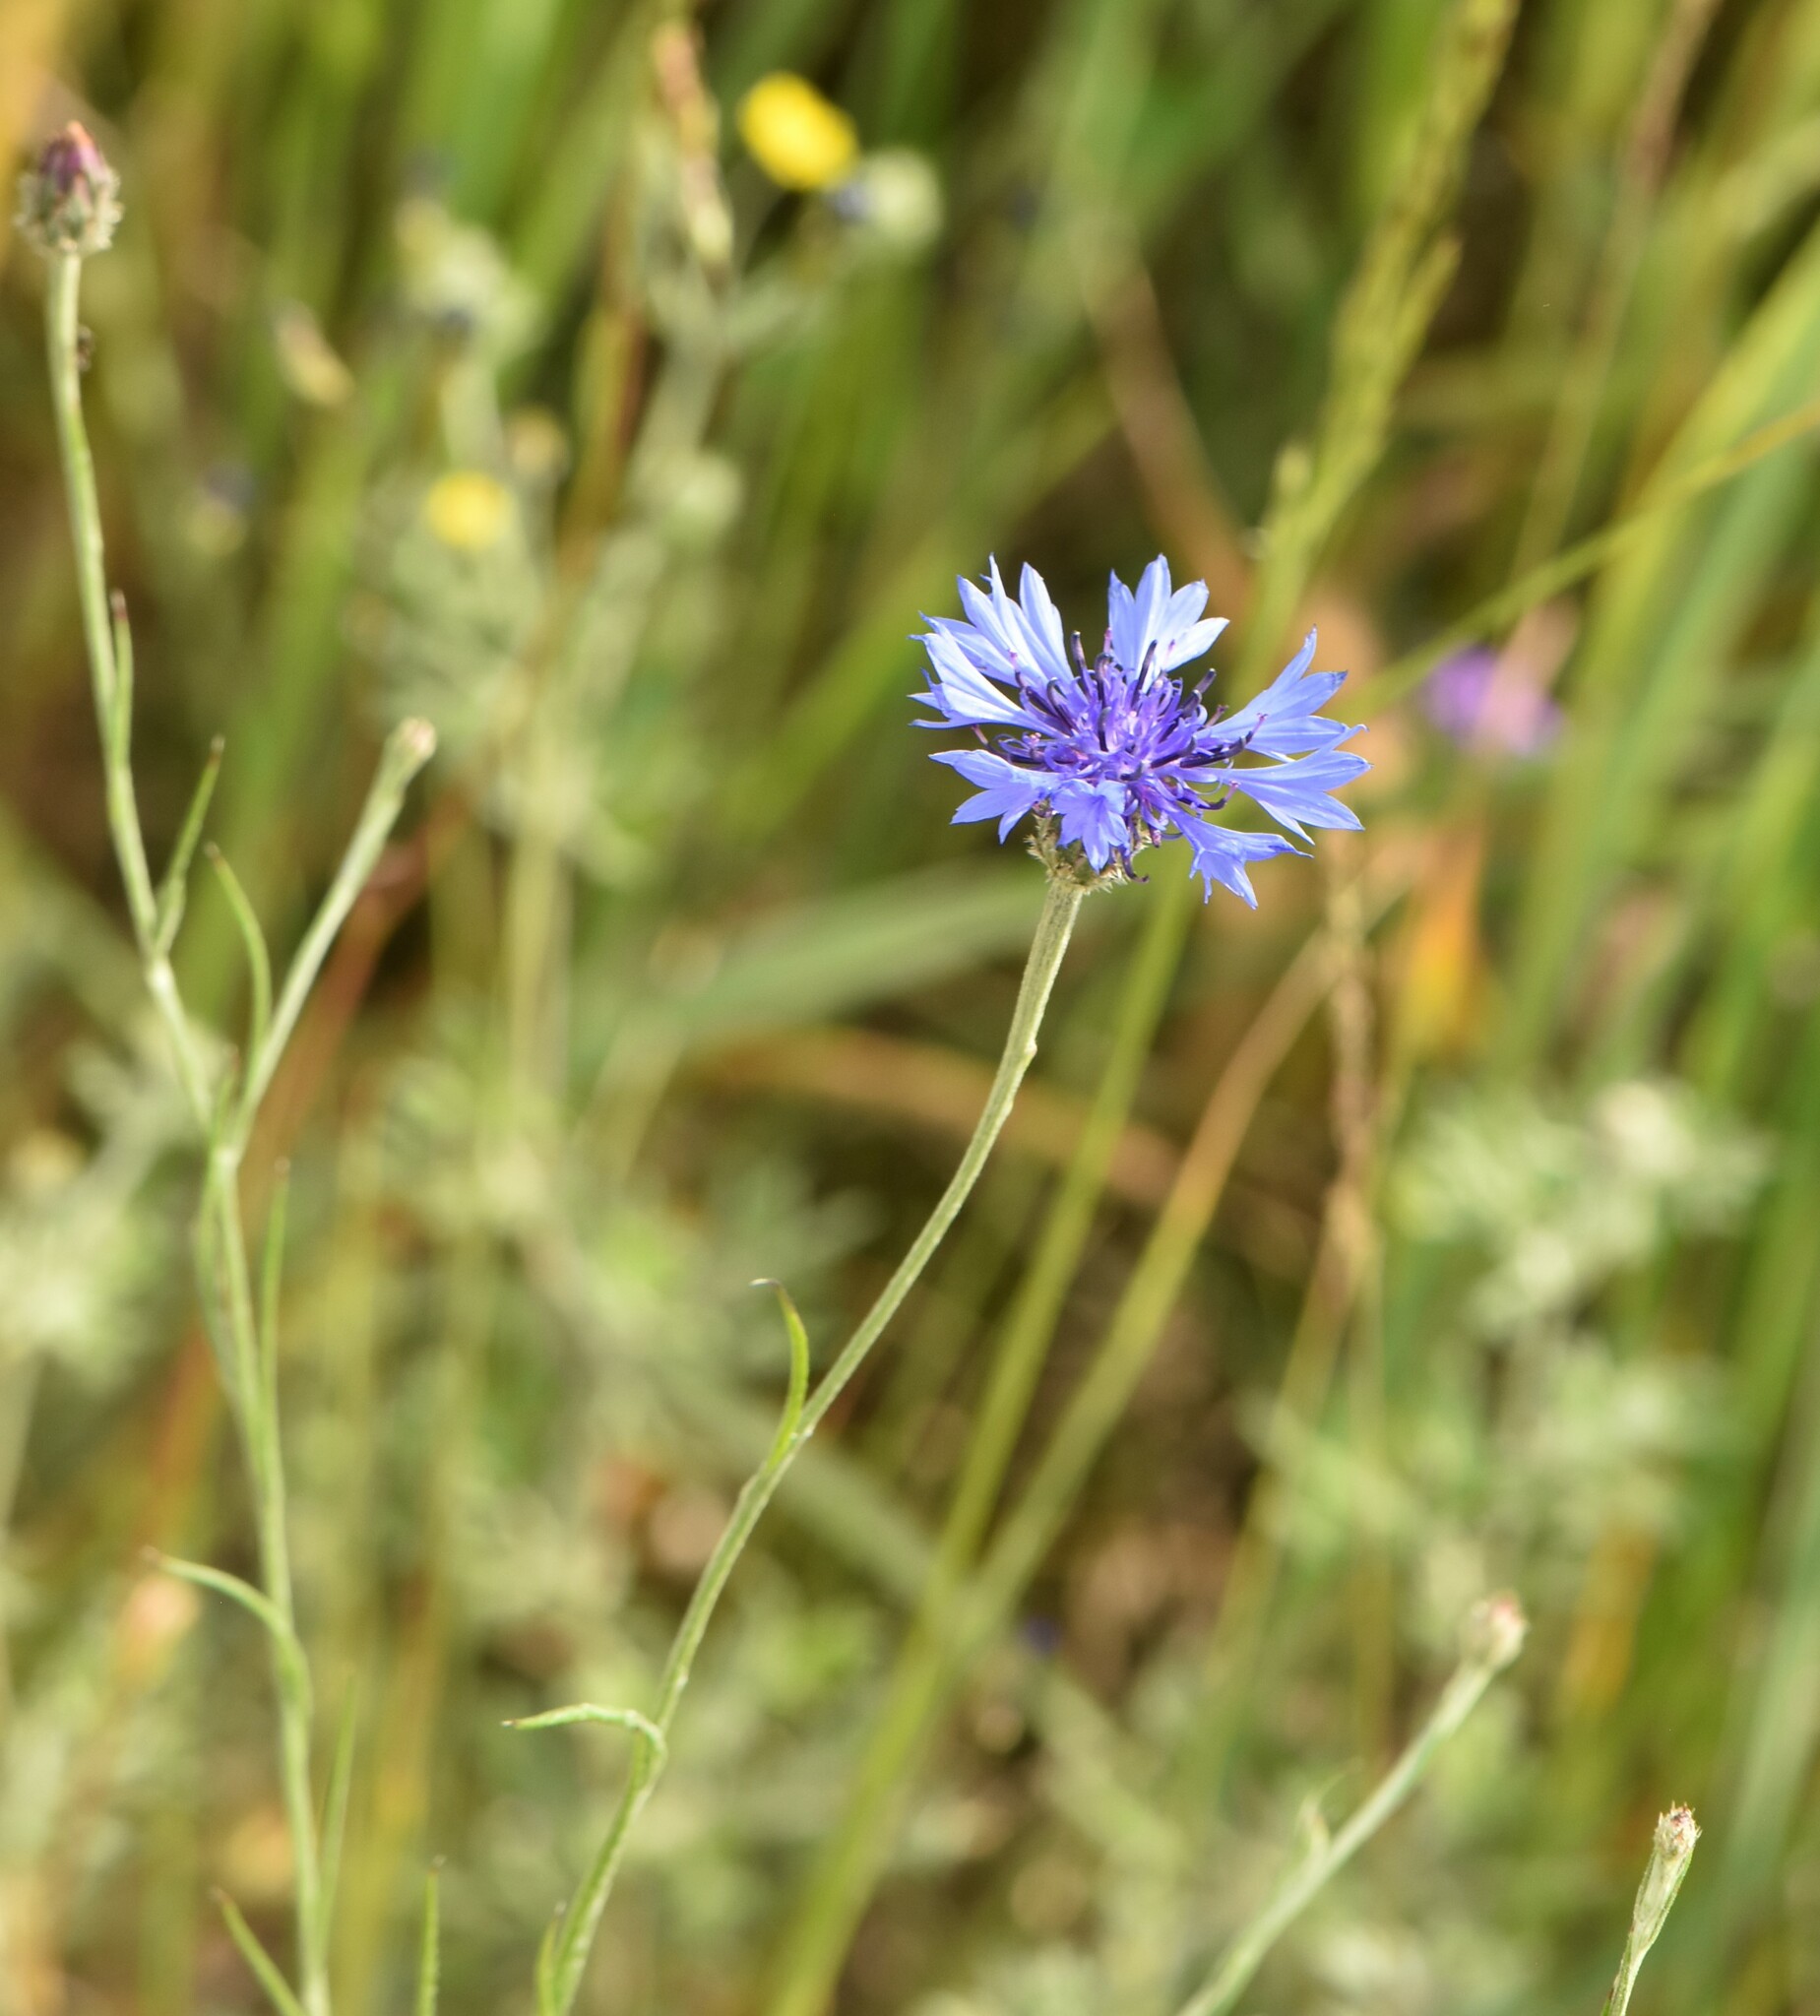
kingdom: Plantae
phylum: Tracheophyta
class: Magnoliopsida
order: Asterales
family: Asteraceae
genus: Centaurea
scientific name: Centaurea cyanus
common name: Cornflower
